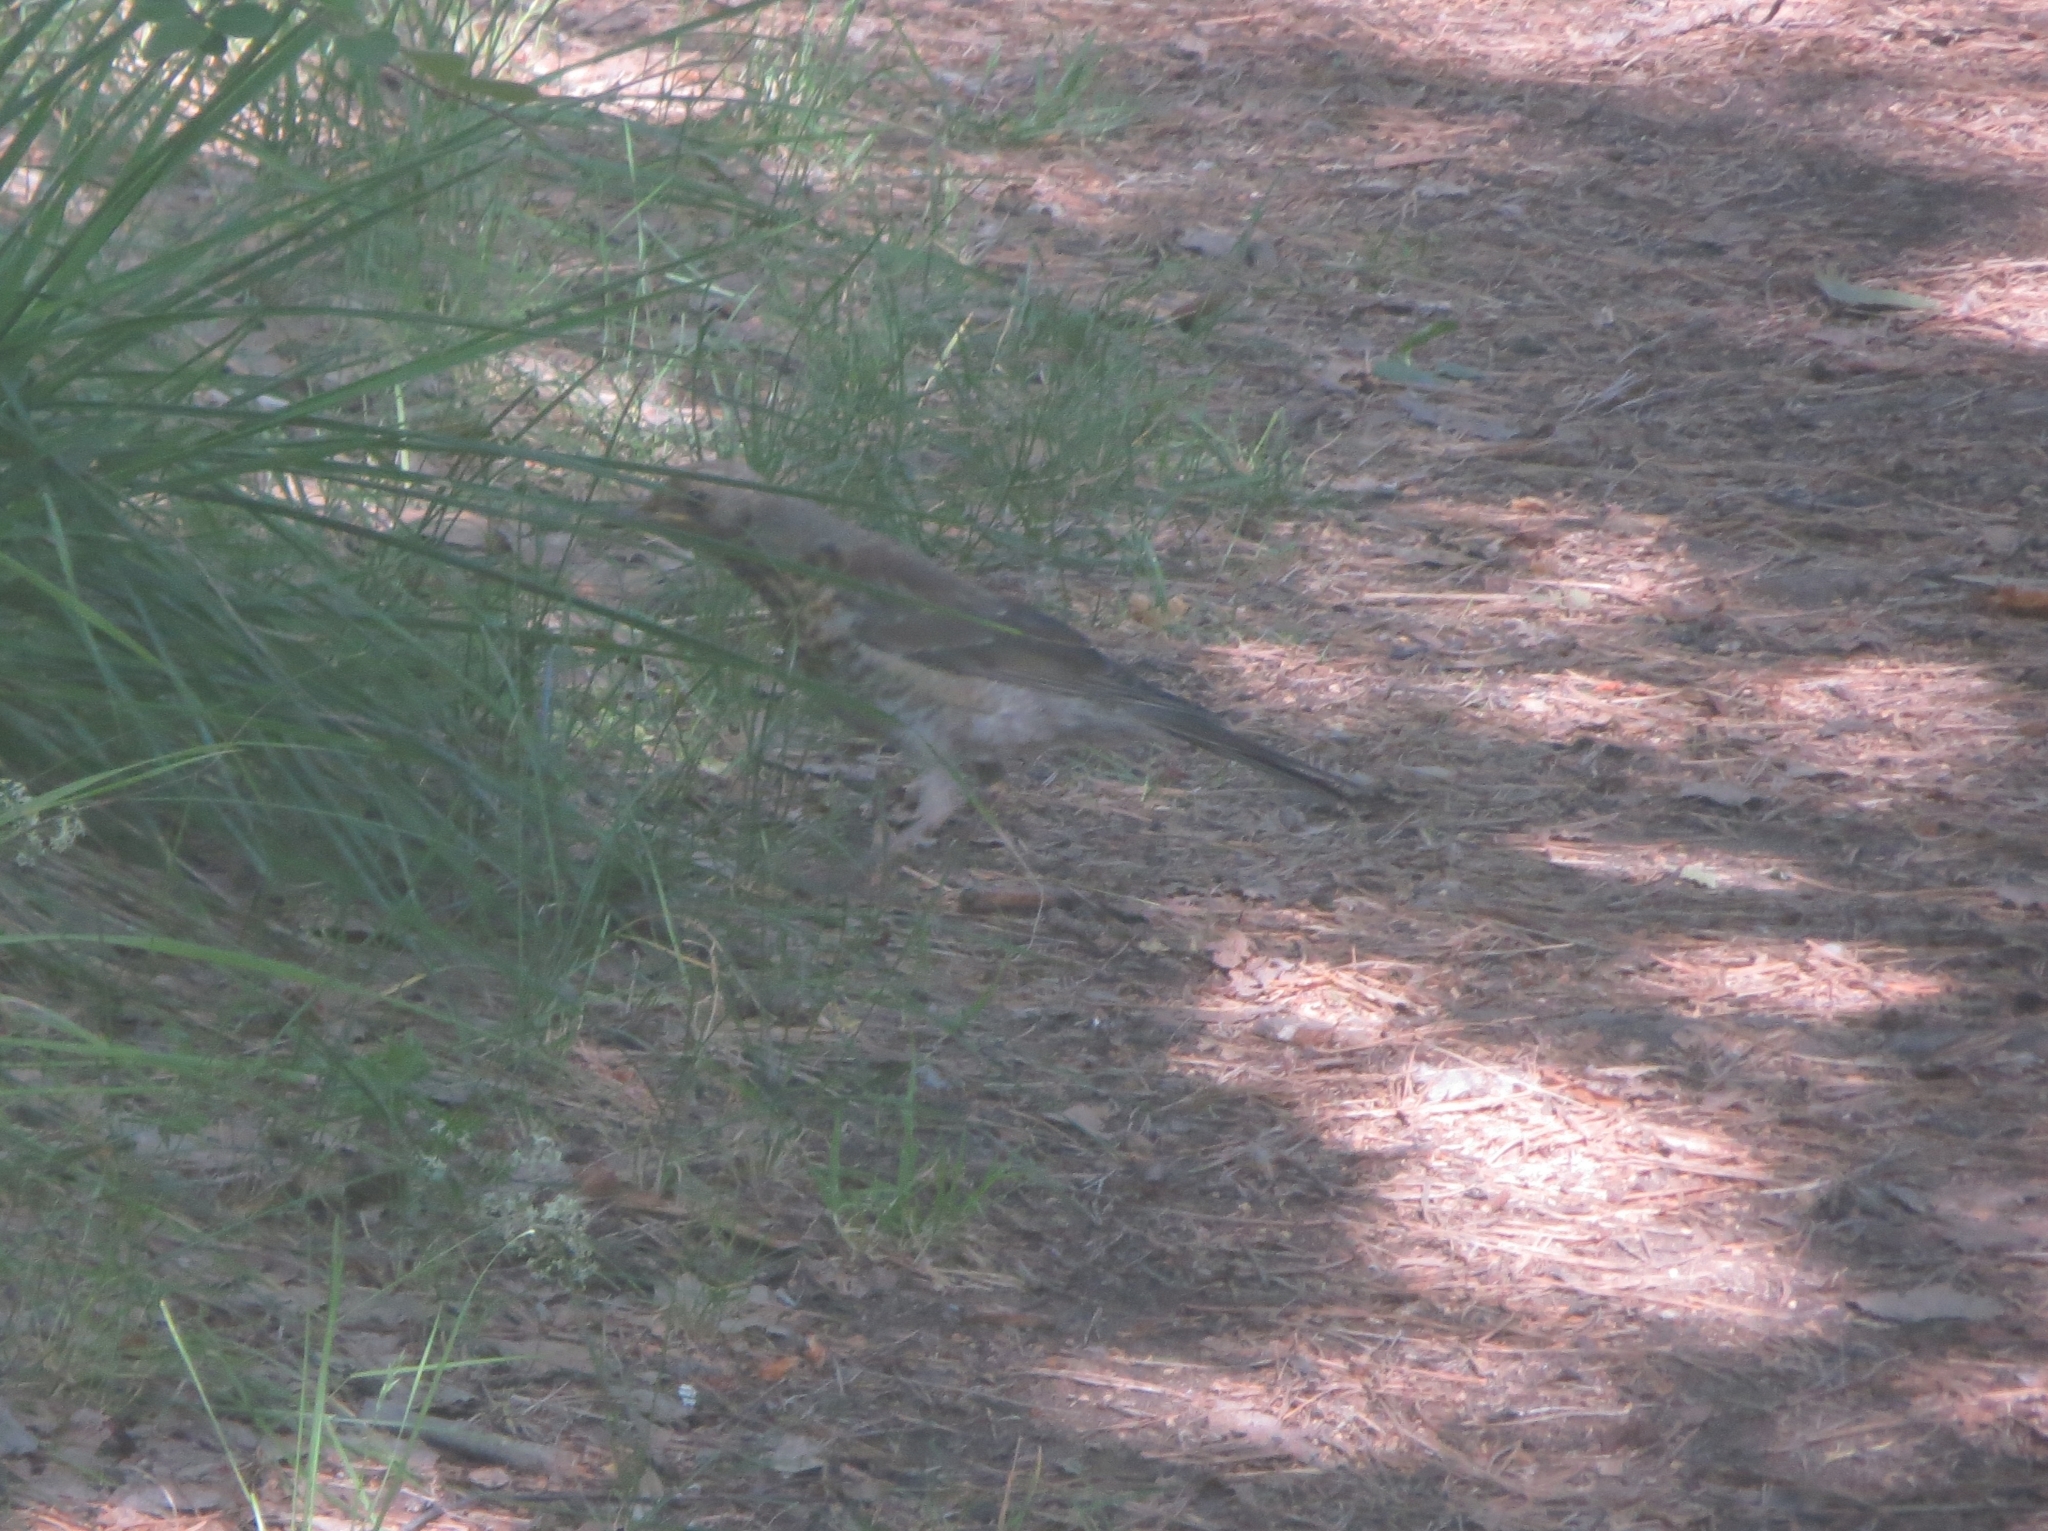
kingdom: Animalia
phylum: Chordata
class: Aves
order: Passeriformes
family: Turdidae
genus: Turdus
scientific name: Turdus pilaris
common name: Fieldfare
